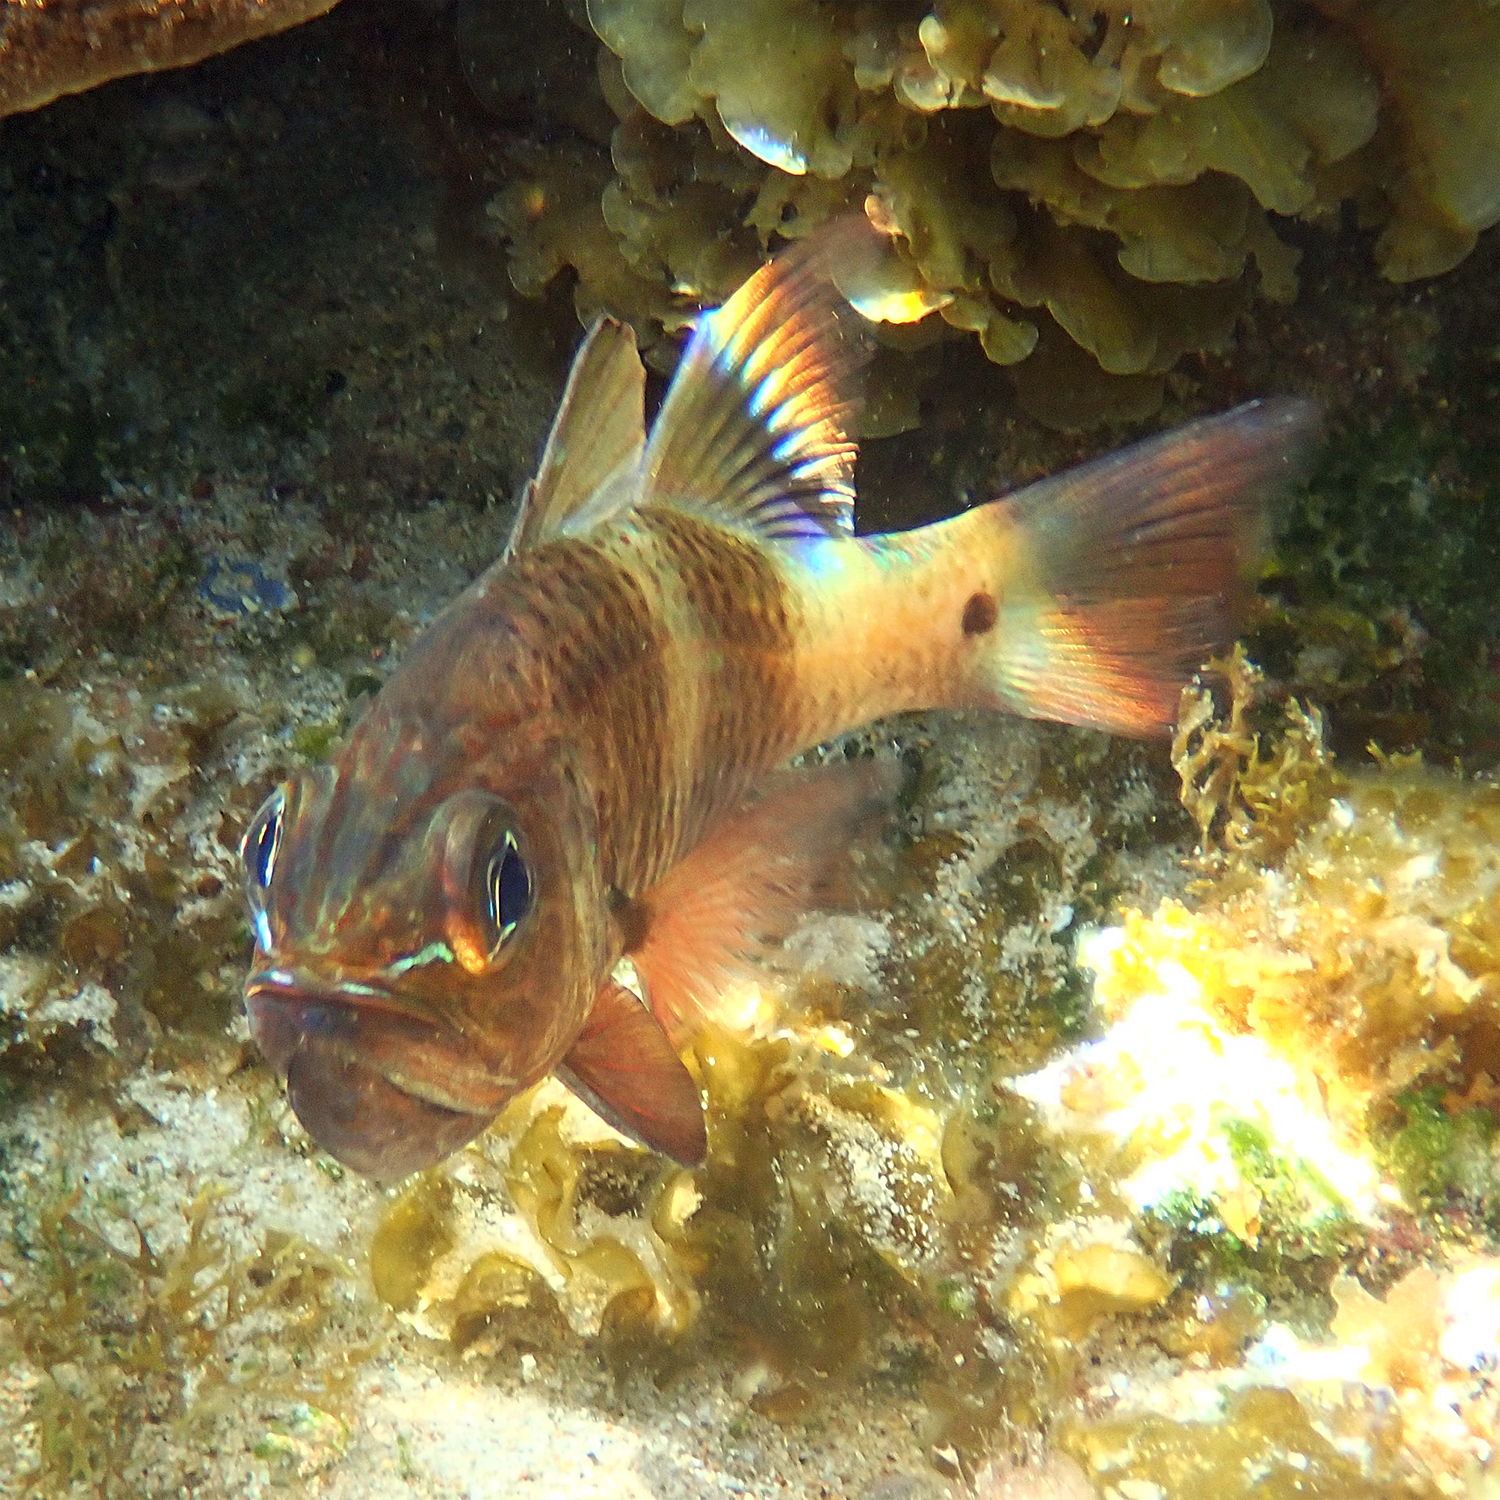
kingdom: Animalia
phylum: Chordata
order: Perciformes
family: Apogonidae
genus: Ostorhinchus
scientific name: Ostorhinchus norfolcensis
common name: Norfolk cardinalfish
